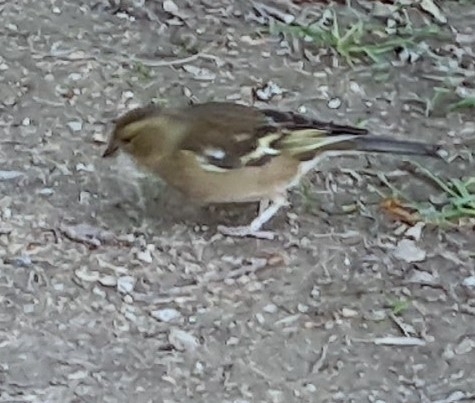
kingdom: Animalia
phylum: Chordata
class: Aves
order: Passeriformes
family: Fringillidae
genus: Fringilla
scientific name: Fringilla coelebs
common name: Common chaffinch
